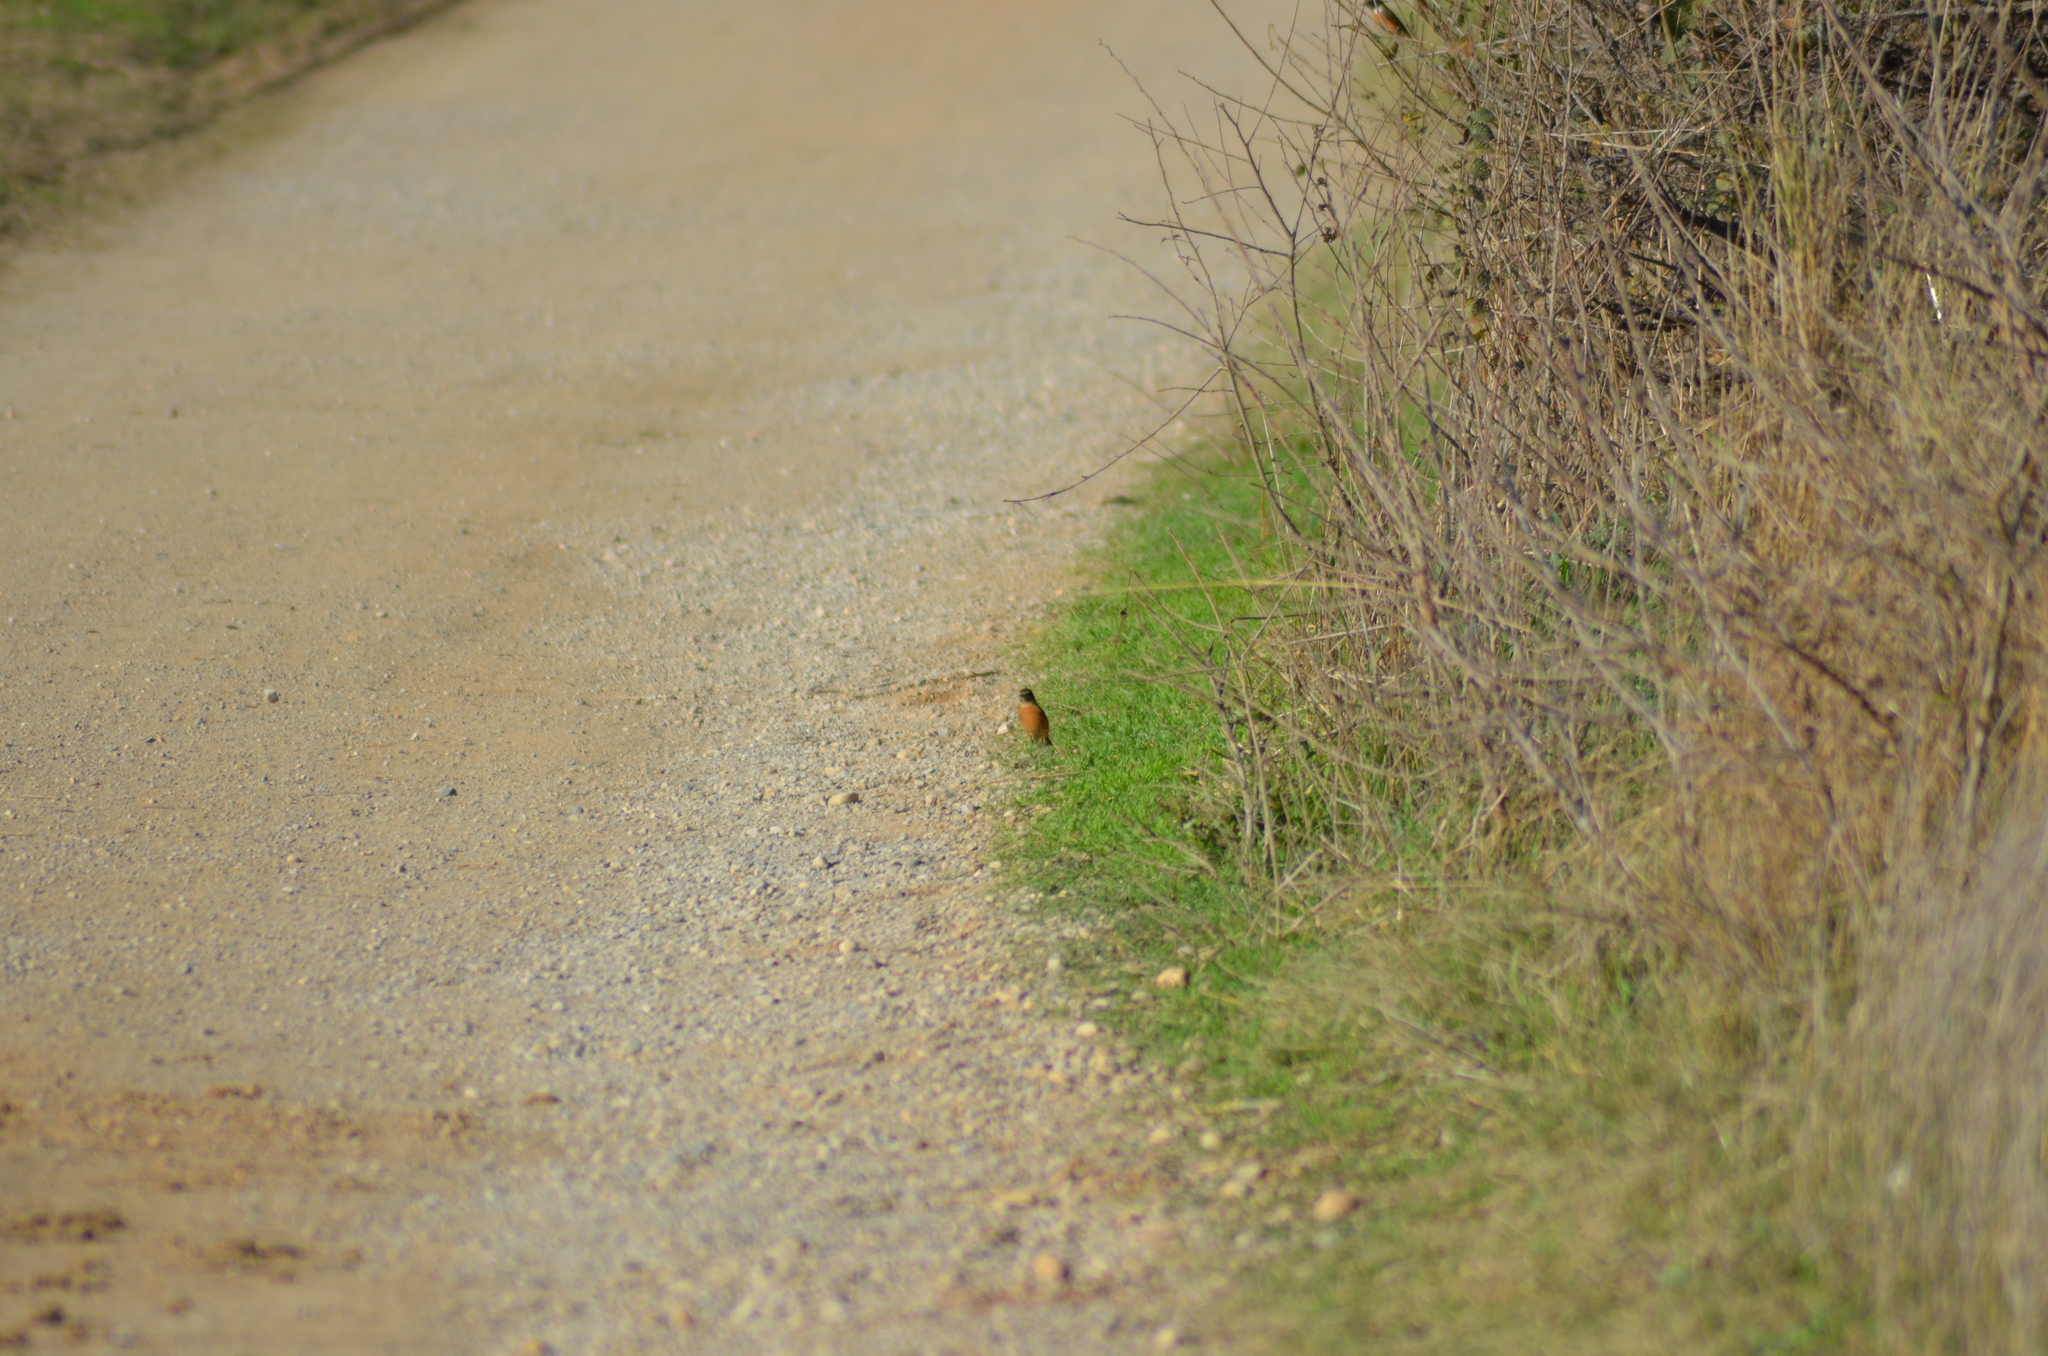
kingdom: Animalia
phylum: Chordata
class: Aves
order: Passeriformes
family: Muscicapidae
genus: Saxicola
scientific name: Saxicola rubicola
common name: European stonechat
